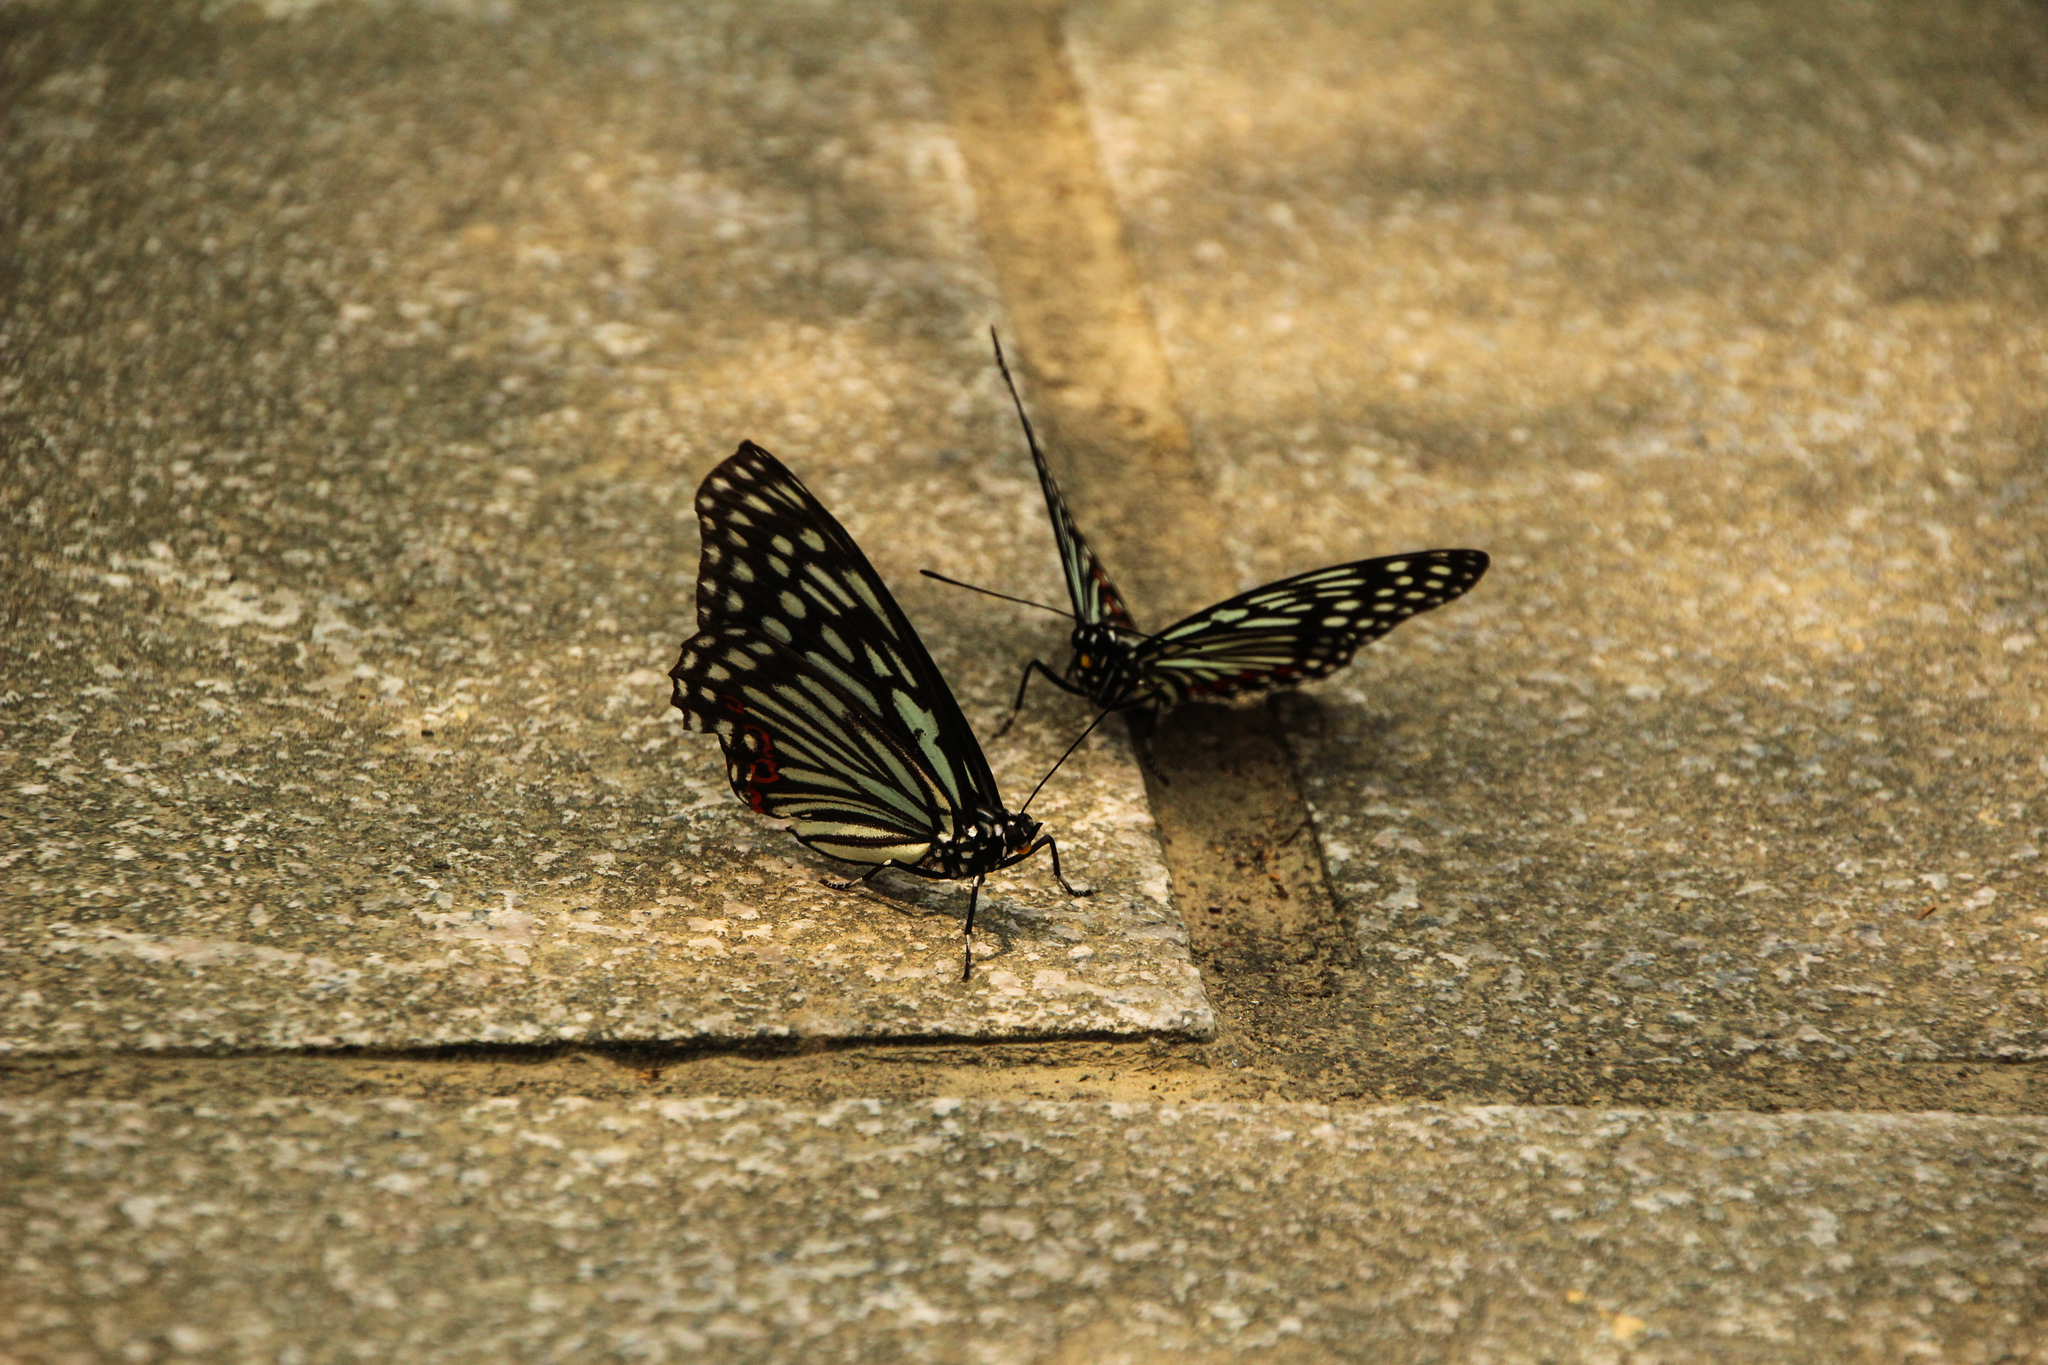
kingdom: Animalia
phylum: Arthropoda
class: Insecta
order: Lepidoptera
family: Nymphalidae
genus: Hestina
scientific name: Hestina assimilis
